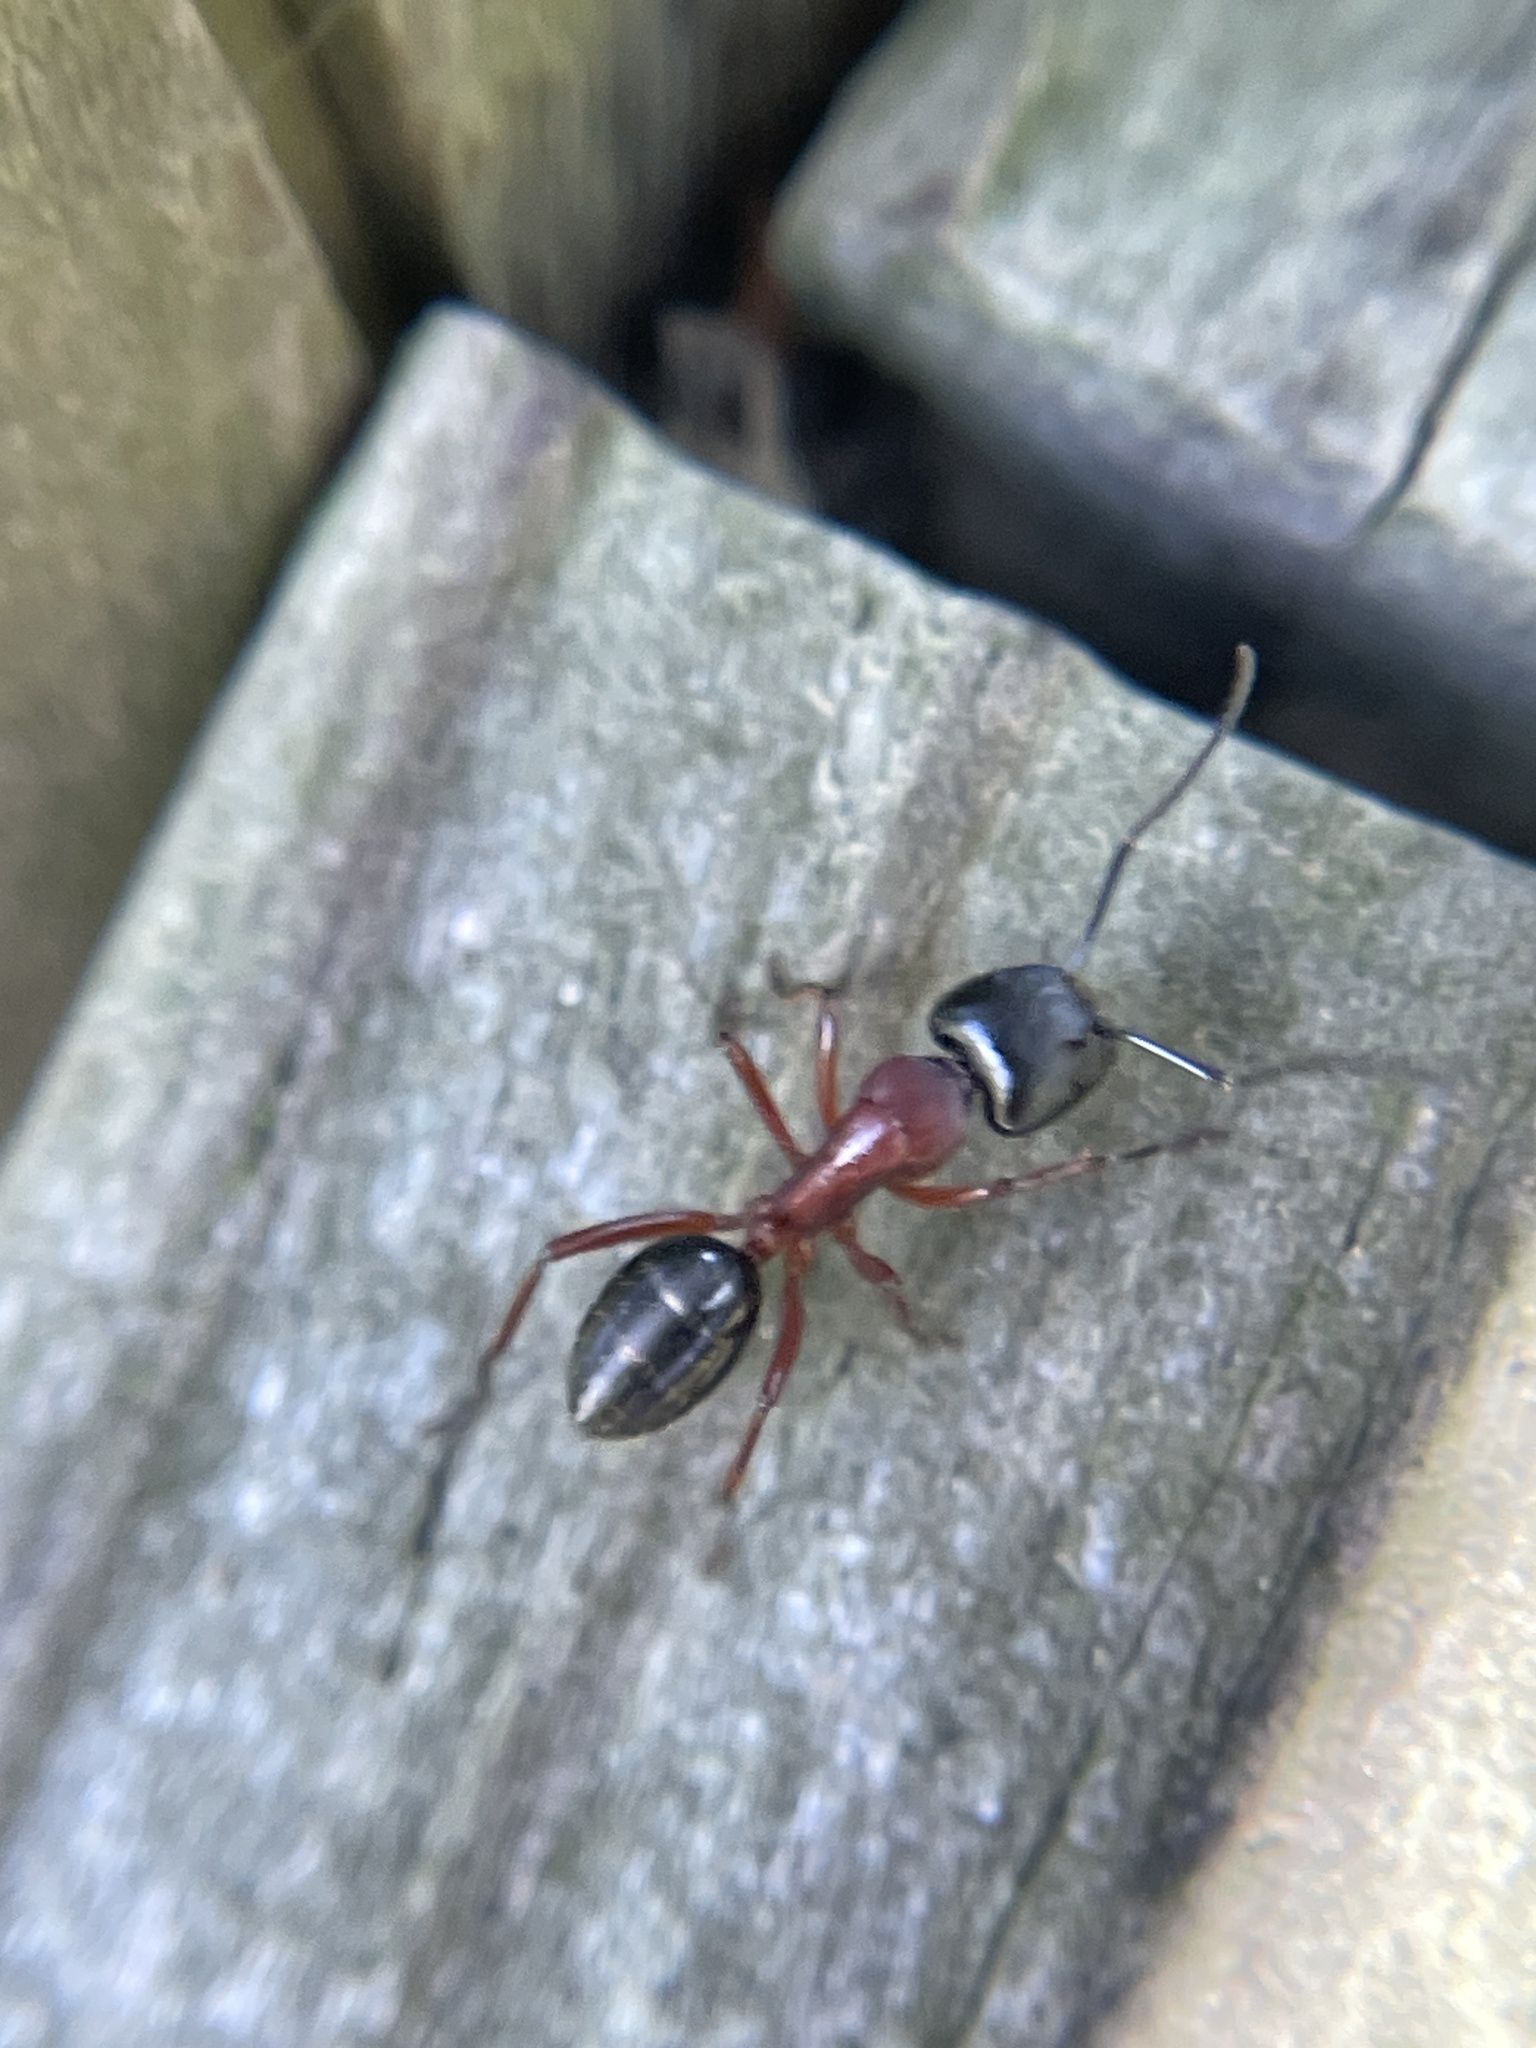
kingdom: Animalia
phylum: Arthropoda
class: Insecta
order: Hymenoptera
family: Formicidae
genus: Camponotus
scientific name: Camponotus innexus
